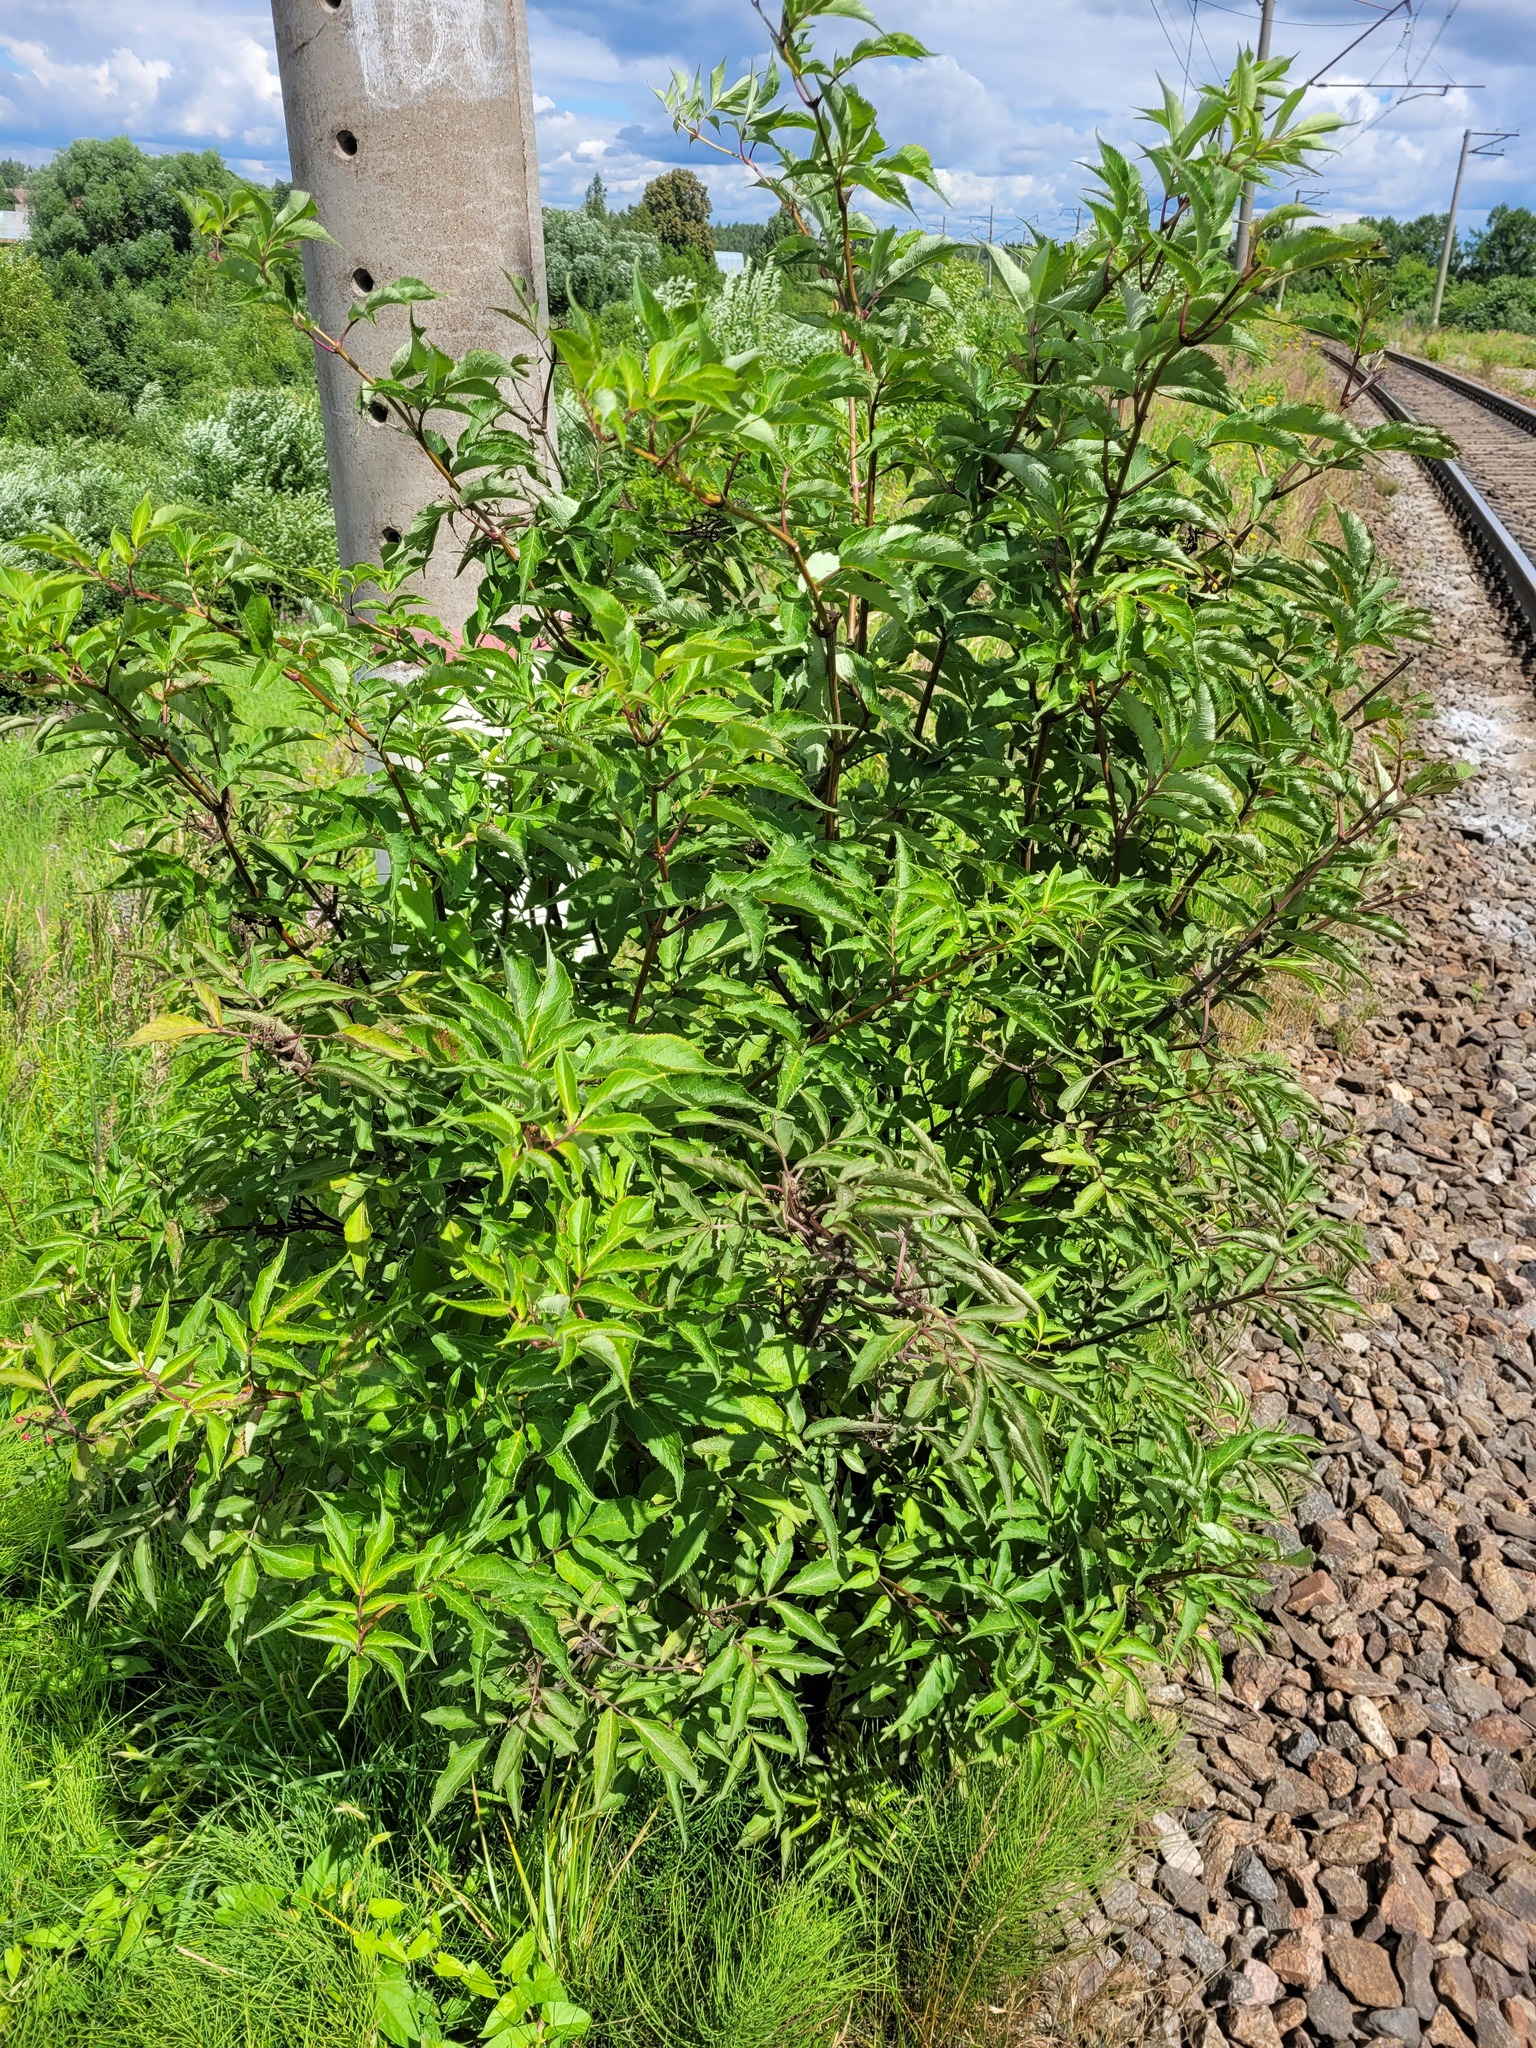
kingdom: Plantae
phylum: Tracheophyta
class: Magnoliopsida
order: Dipsacales
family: Viburnaceae
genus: Sambucus
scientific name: Sambucus racemosa
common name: Red-berried elder
